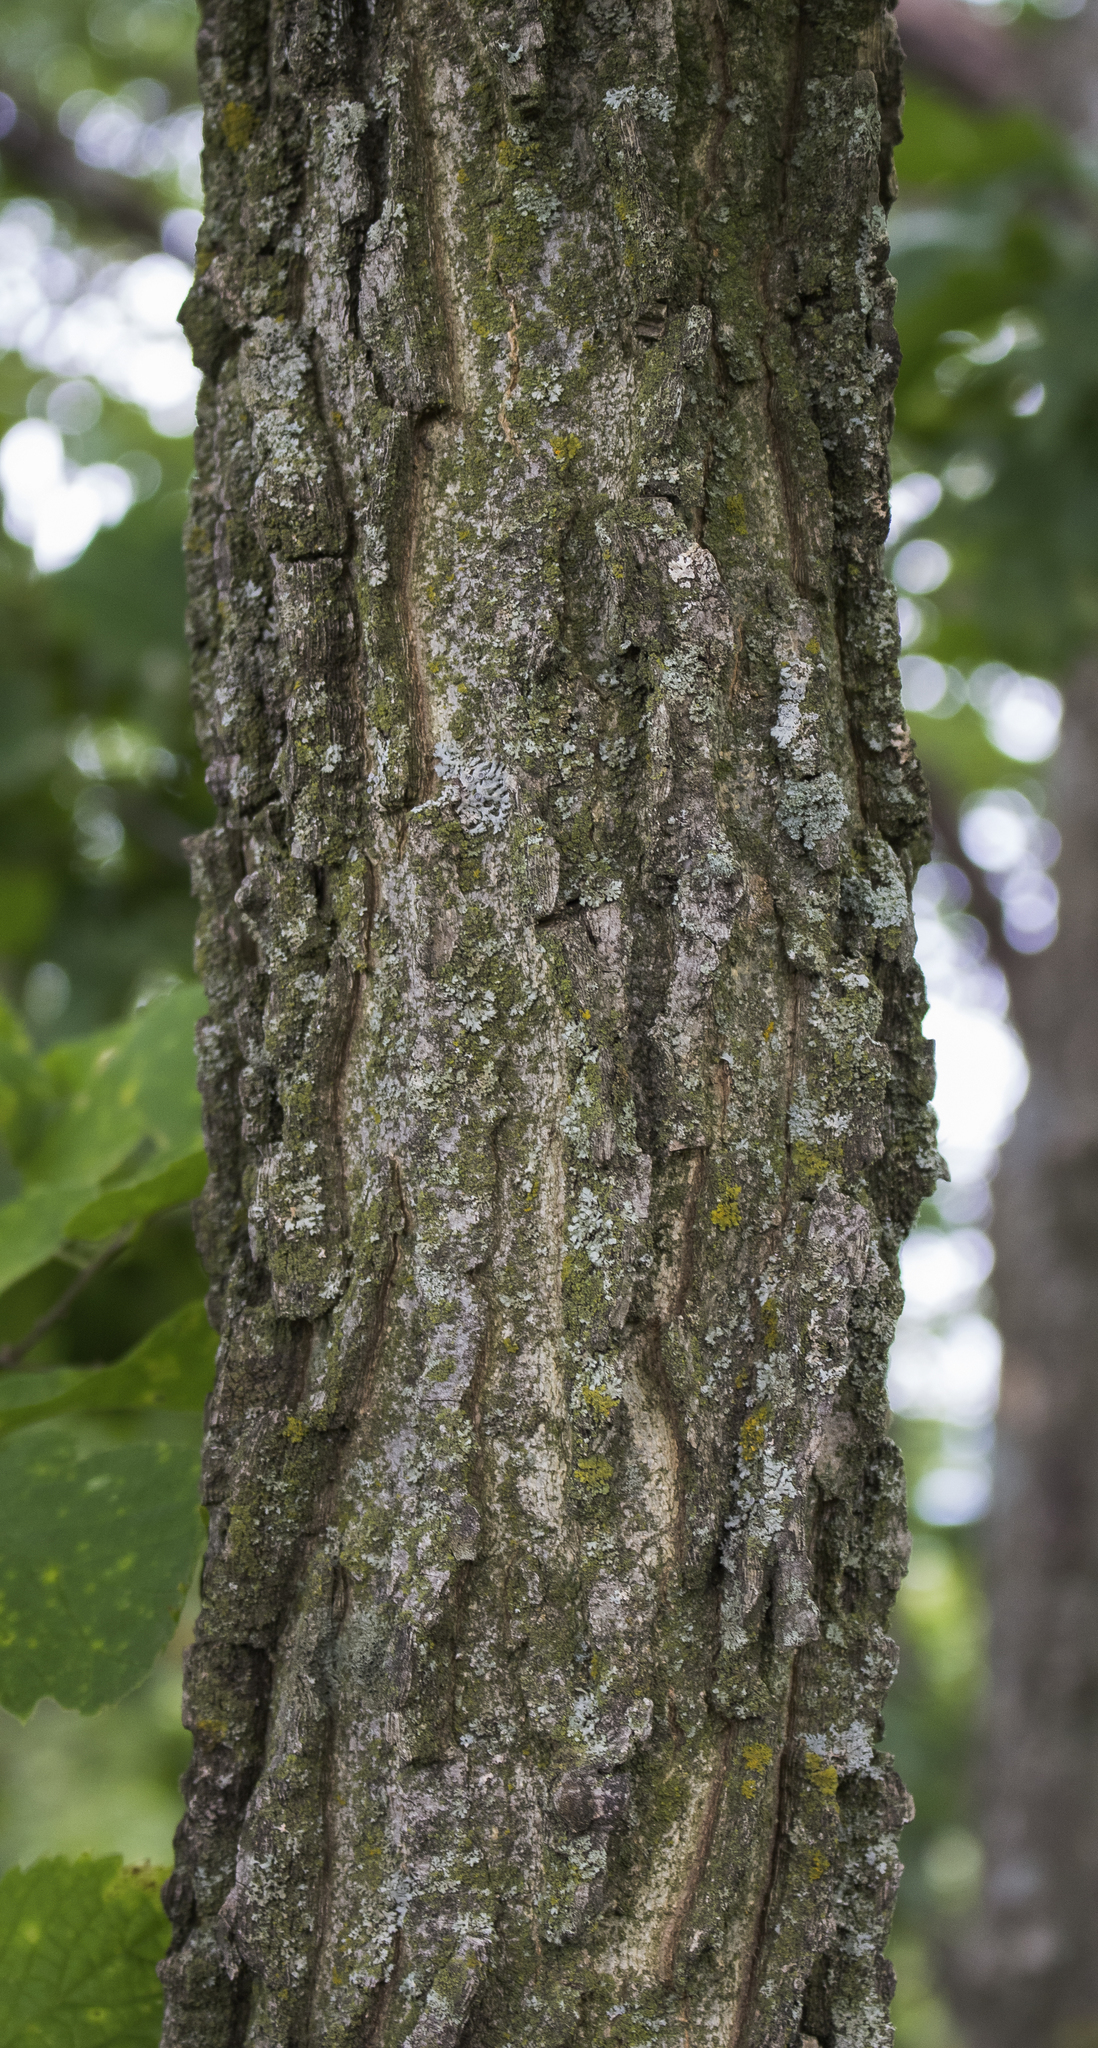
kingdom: Plantae
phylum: Tracheophyta
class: Magnoliopsida
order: Rosales
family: Cannabaceae
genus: Celtis
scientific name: Celtis occidentalis
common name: Common hackberry
